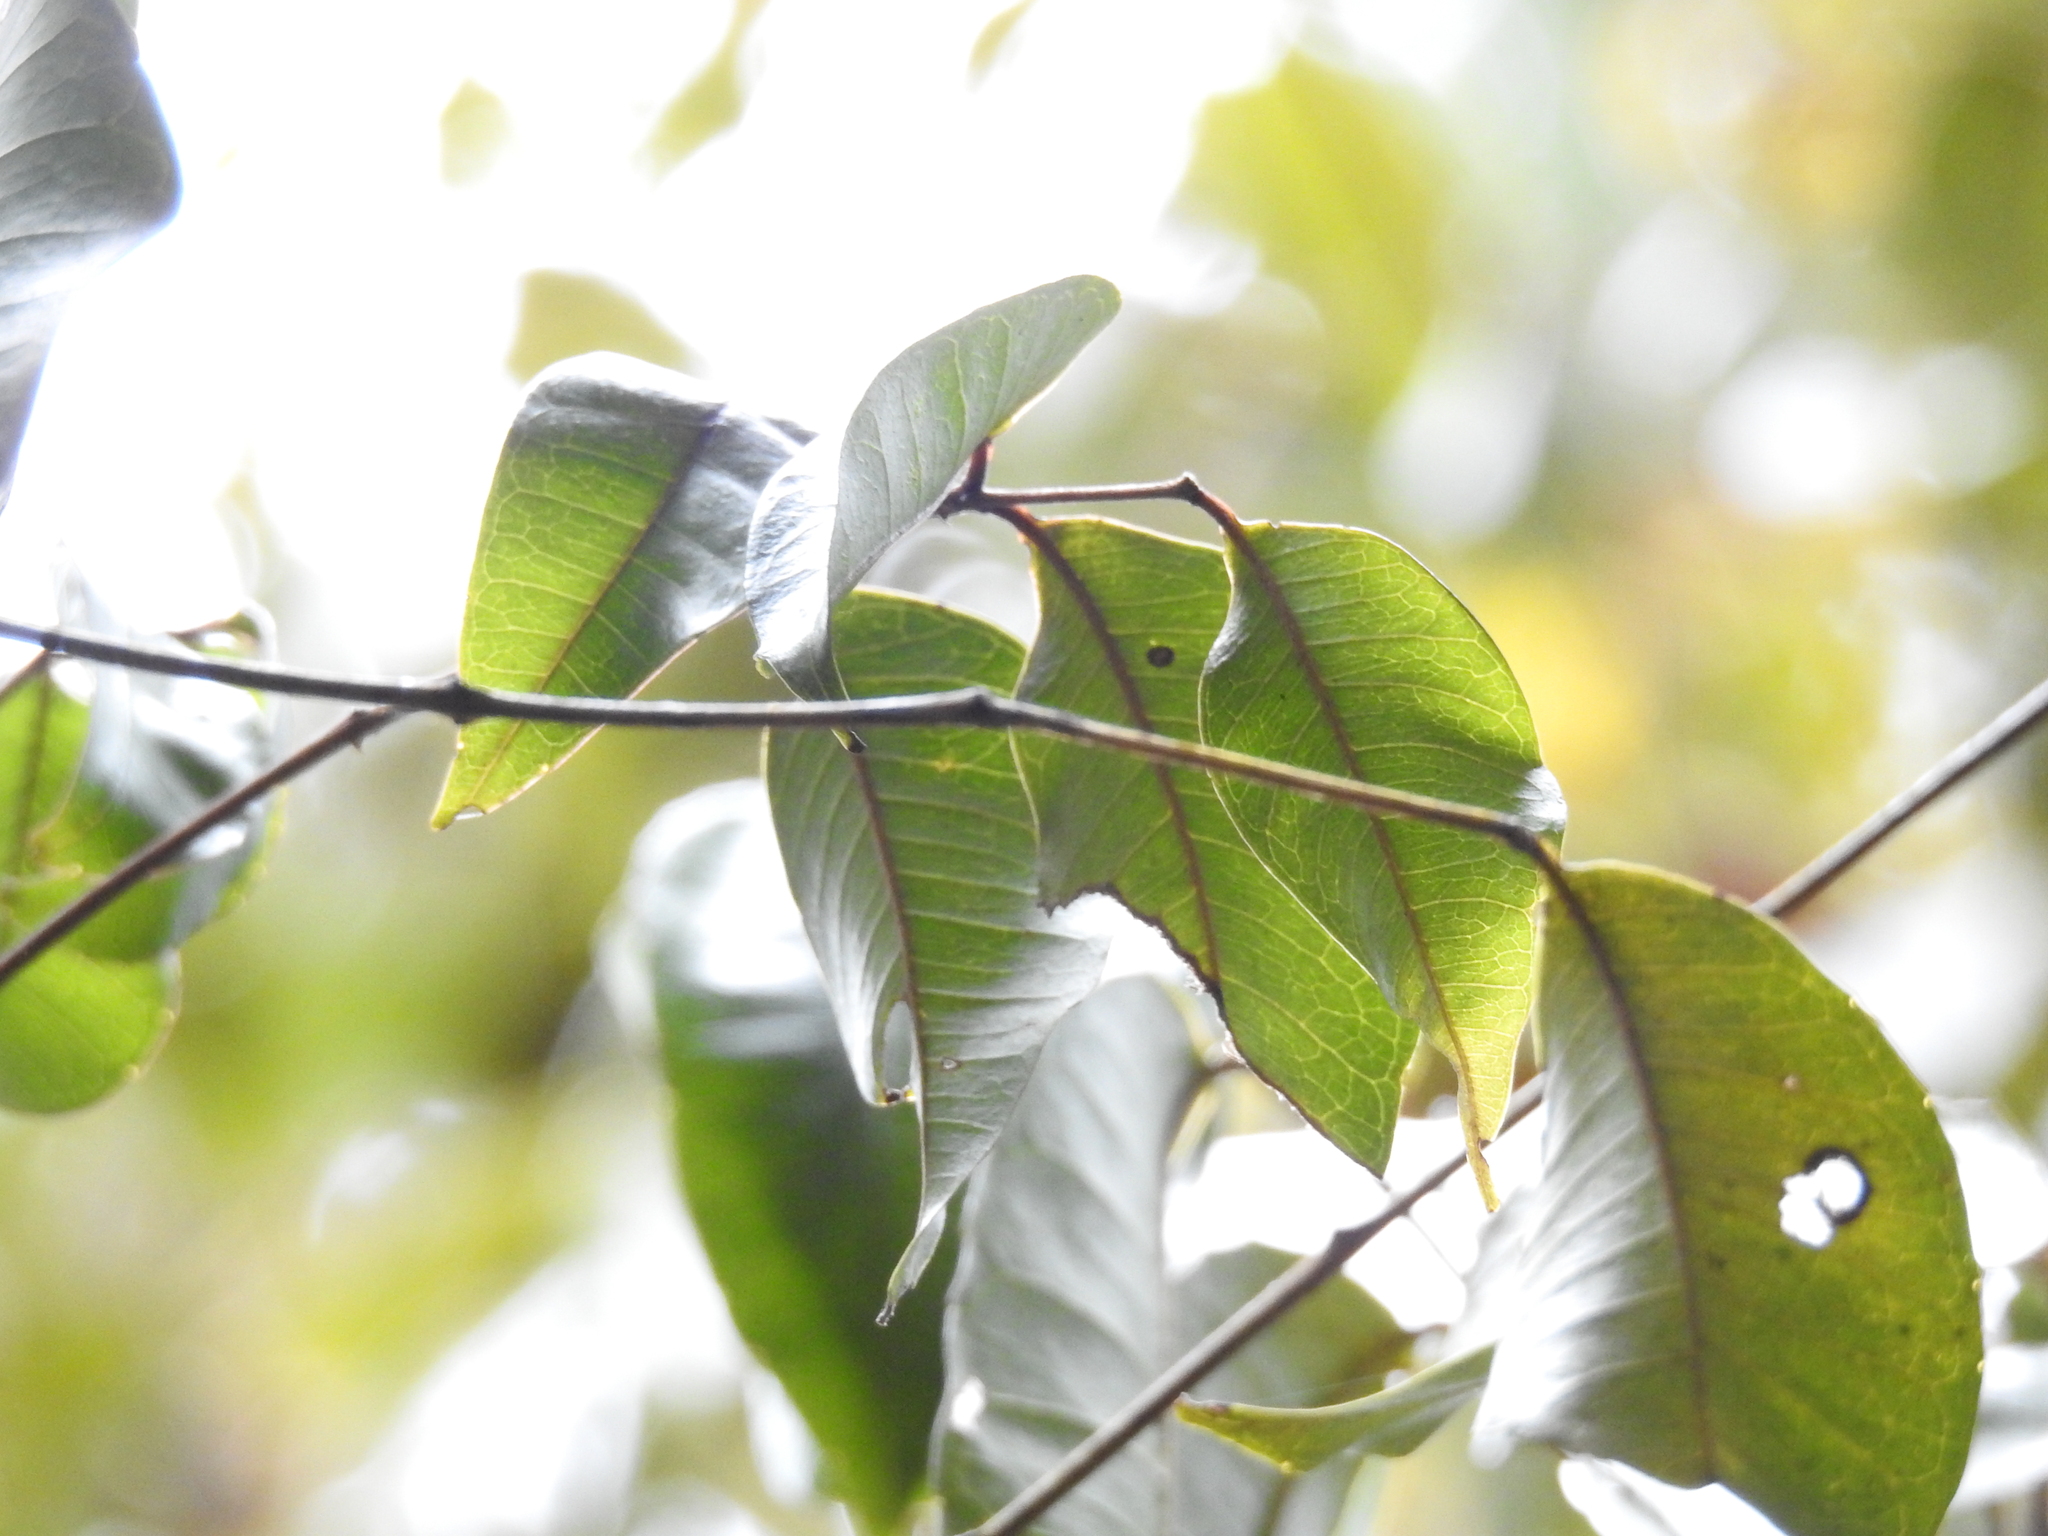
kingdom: Plantae
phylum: Tracheophyta
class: Magnoliopsida
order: Sapindales
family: Rutaceae
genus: Zanthoxylum
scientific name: Zanthoxylum brachyacanthum
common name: Satinwood
